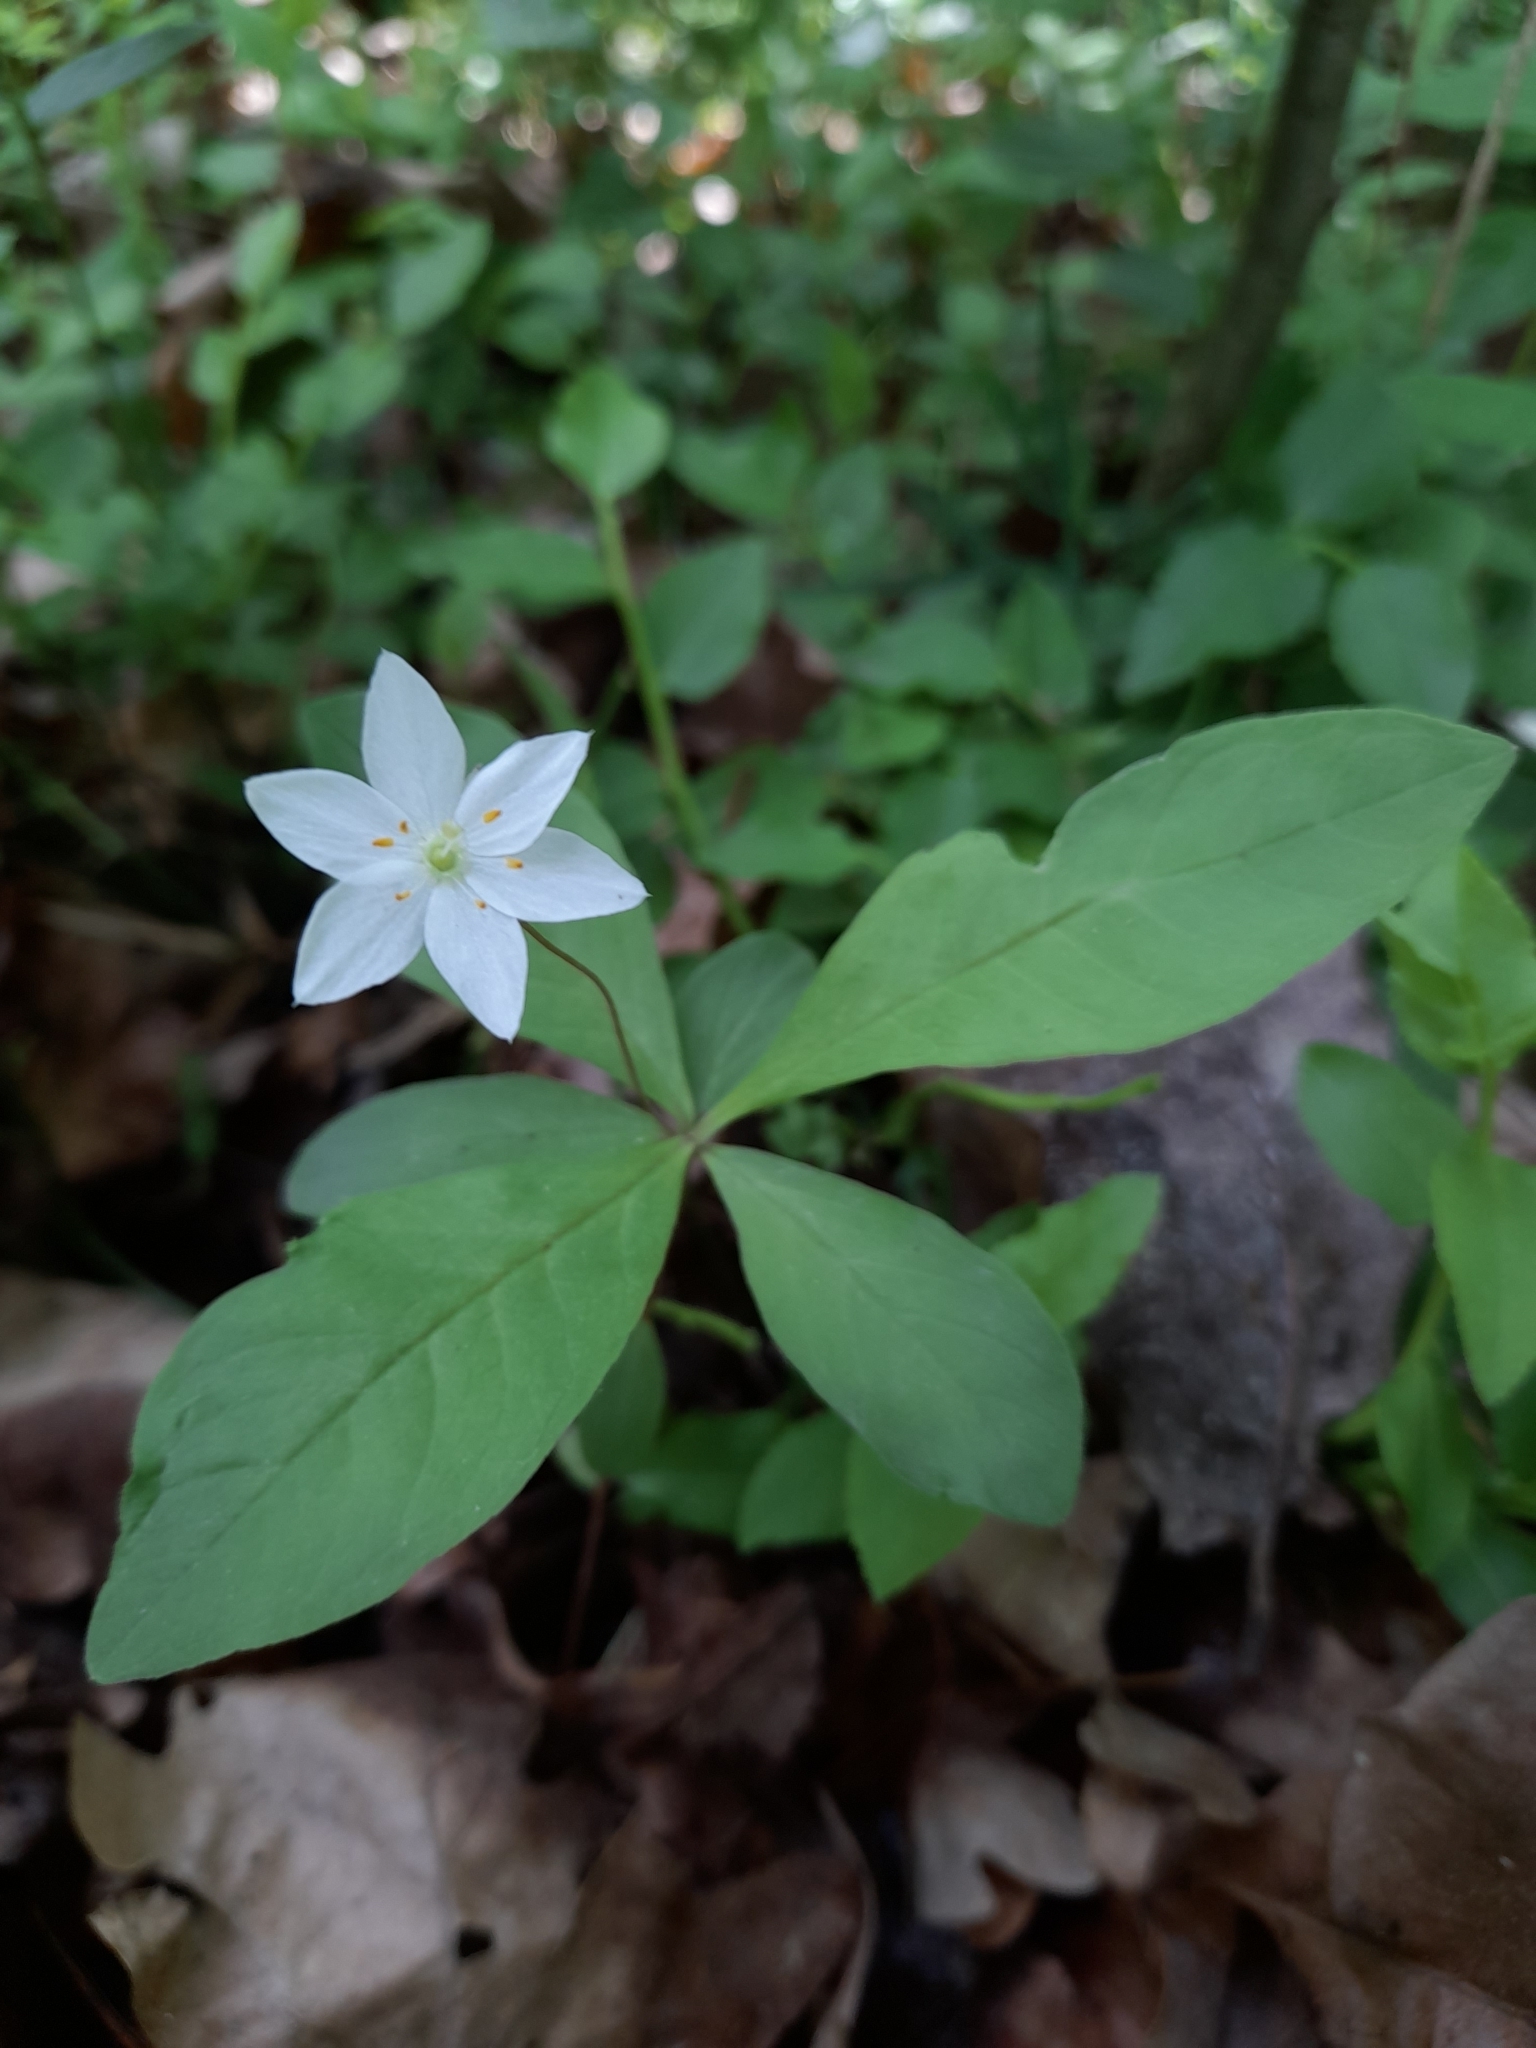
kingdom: Plantae
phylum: Tracheophyta
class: Magnoliopsida
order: Ericales
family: Primulaceae
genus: Lysimachia
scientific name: Lysimachia europaea
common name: Arctic starflower
